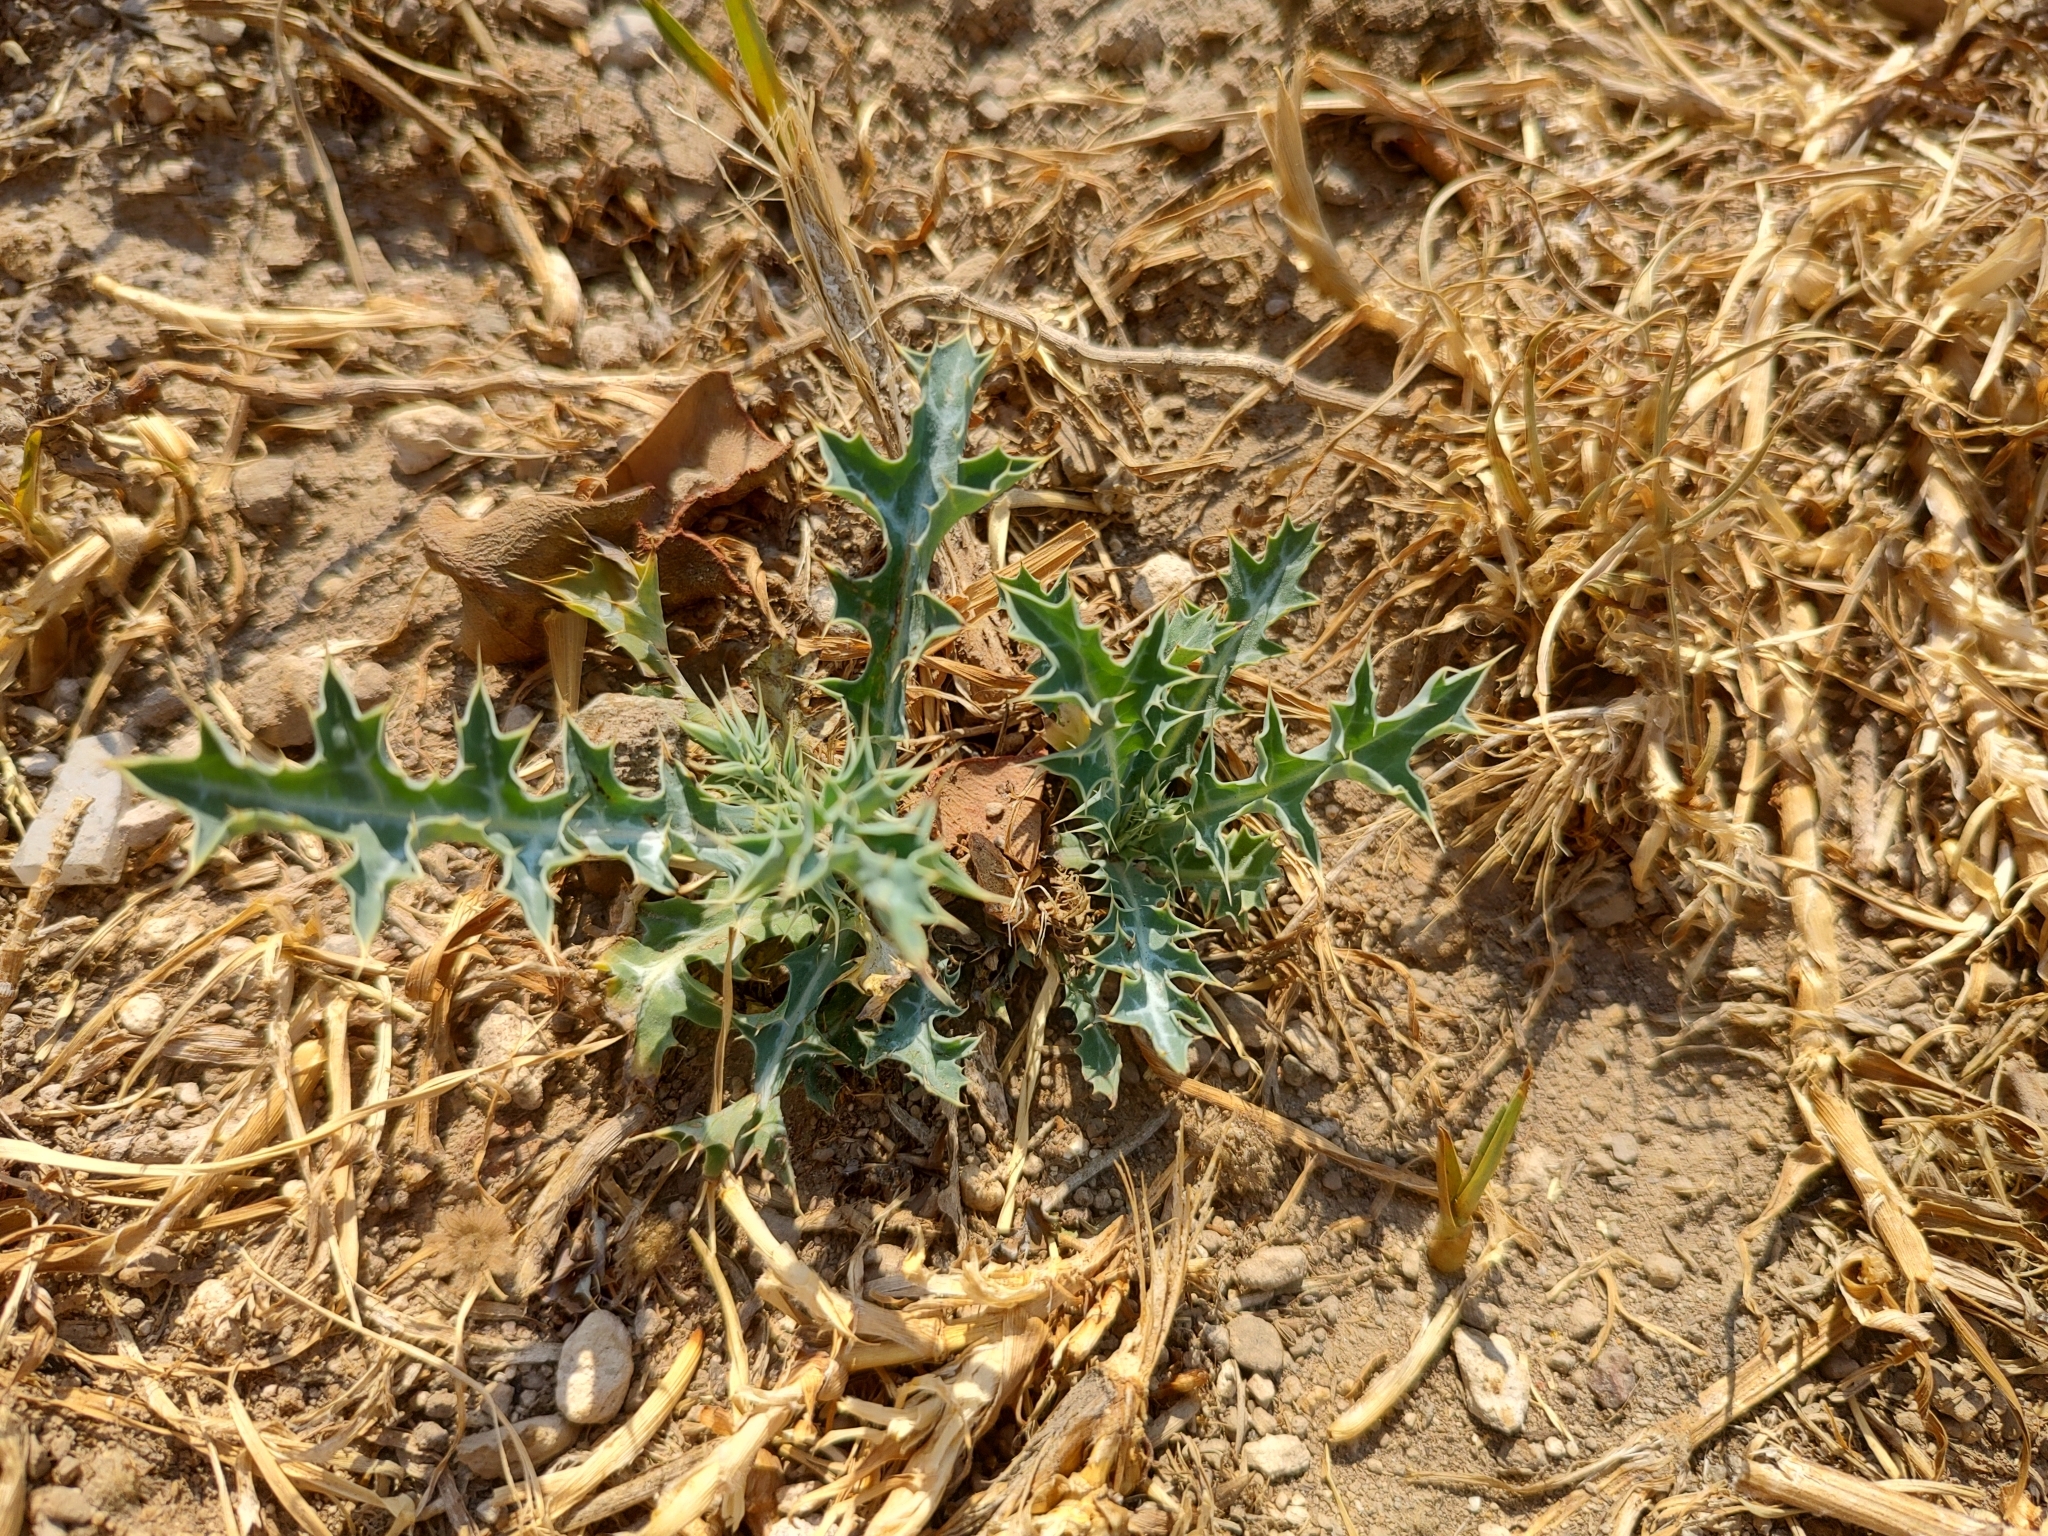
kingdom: Plantae
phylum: Tracheophyta
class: Magnoliopsida
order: Ranunculales
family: Papaveraceae
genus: Argemone
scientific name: Argemone ochroleuca
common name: White-flower mexican-poppy
